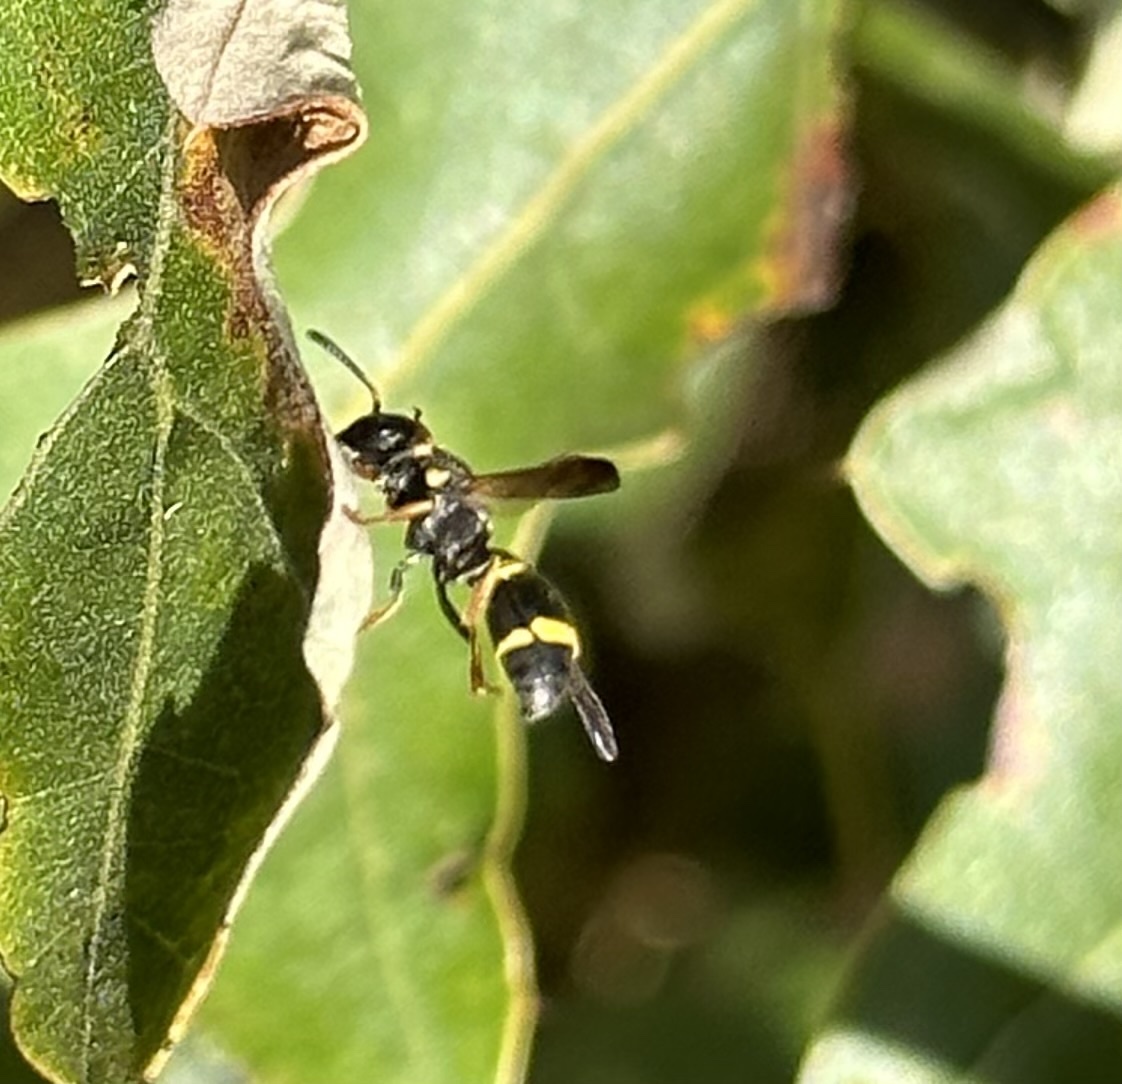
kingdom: Animalia
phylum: Arthropoda
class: Insecta
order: Hymenoptera
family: Eumenidae
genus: Parancistrocerus
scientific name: Parancistrocerus perennis
